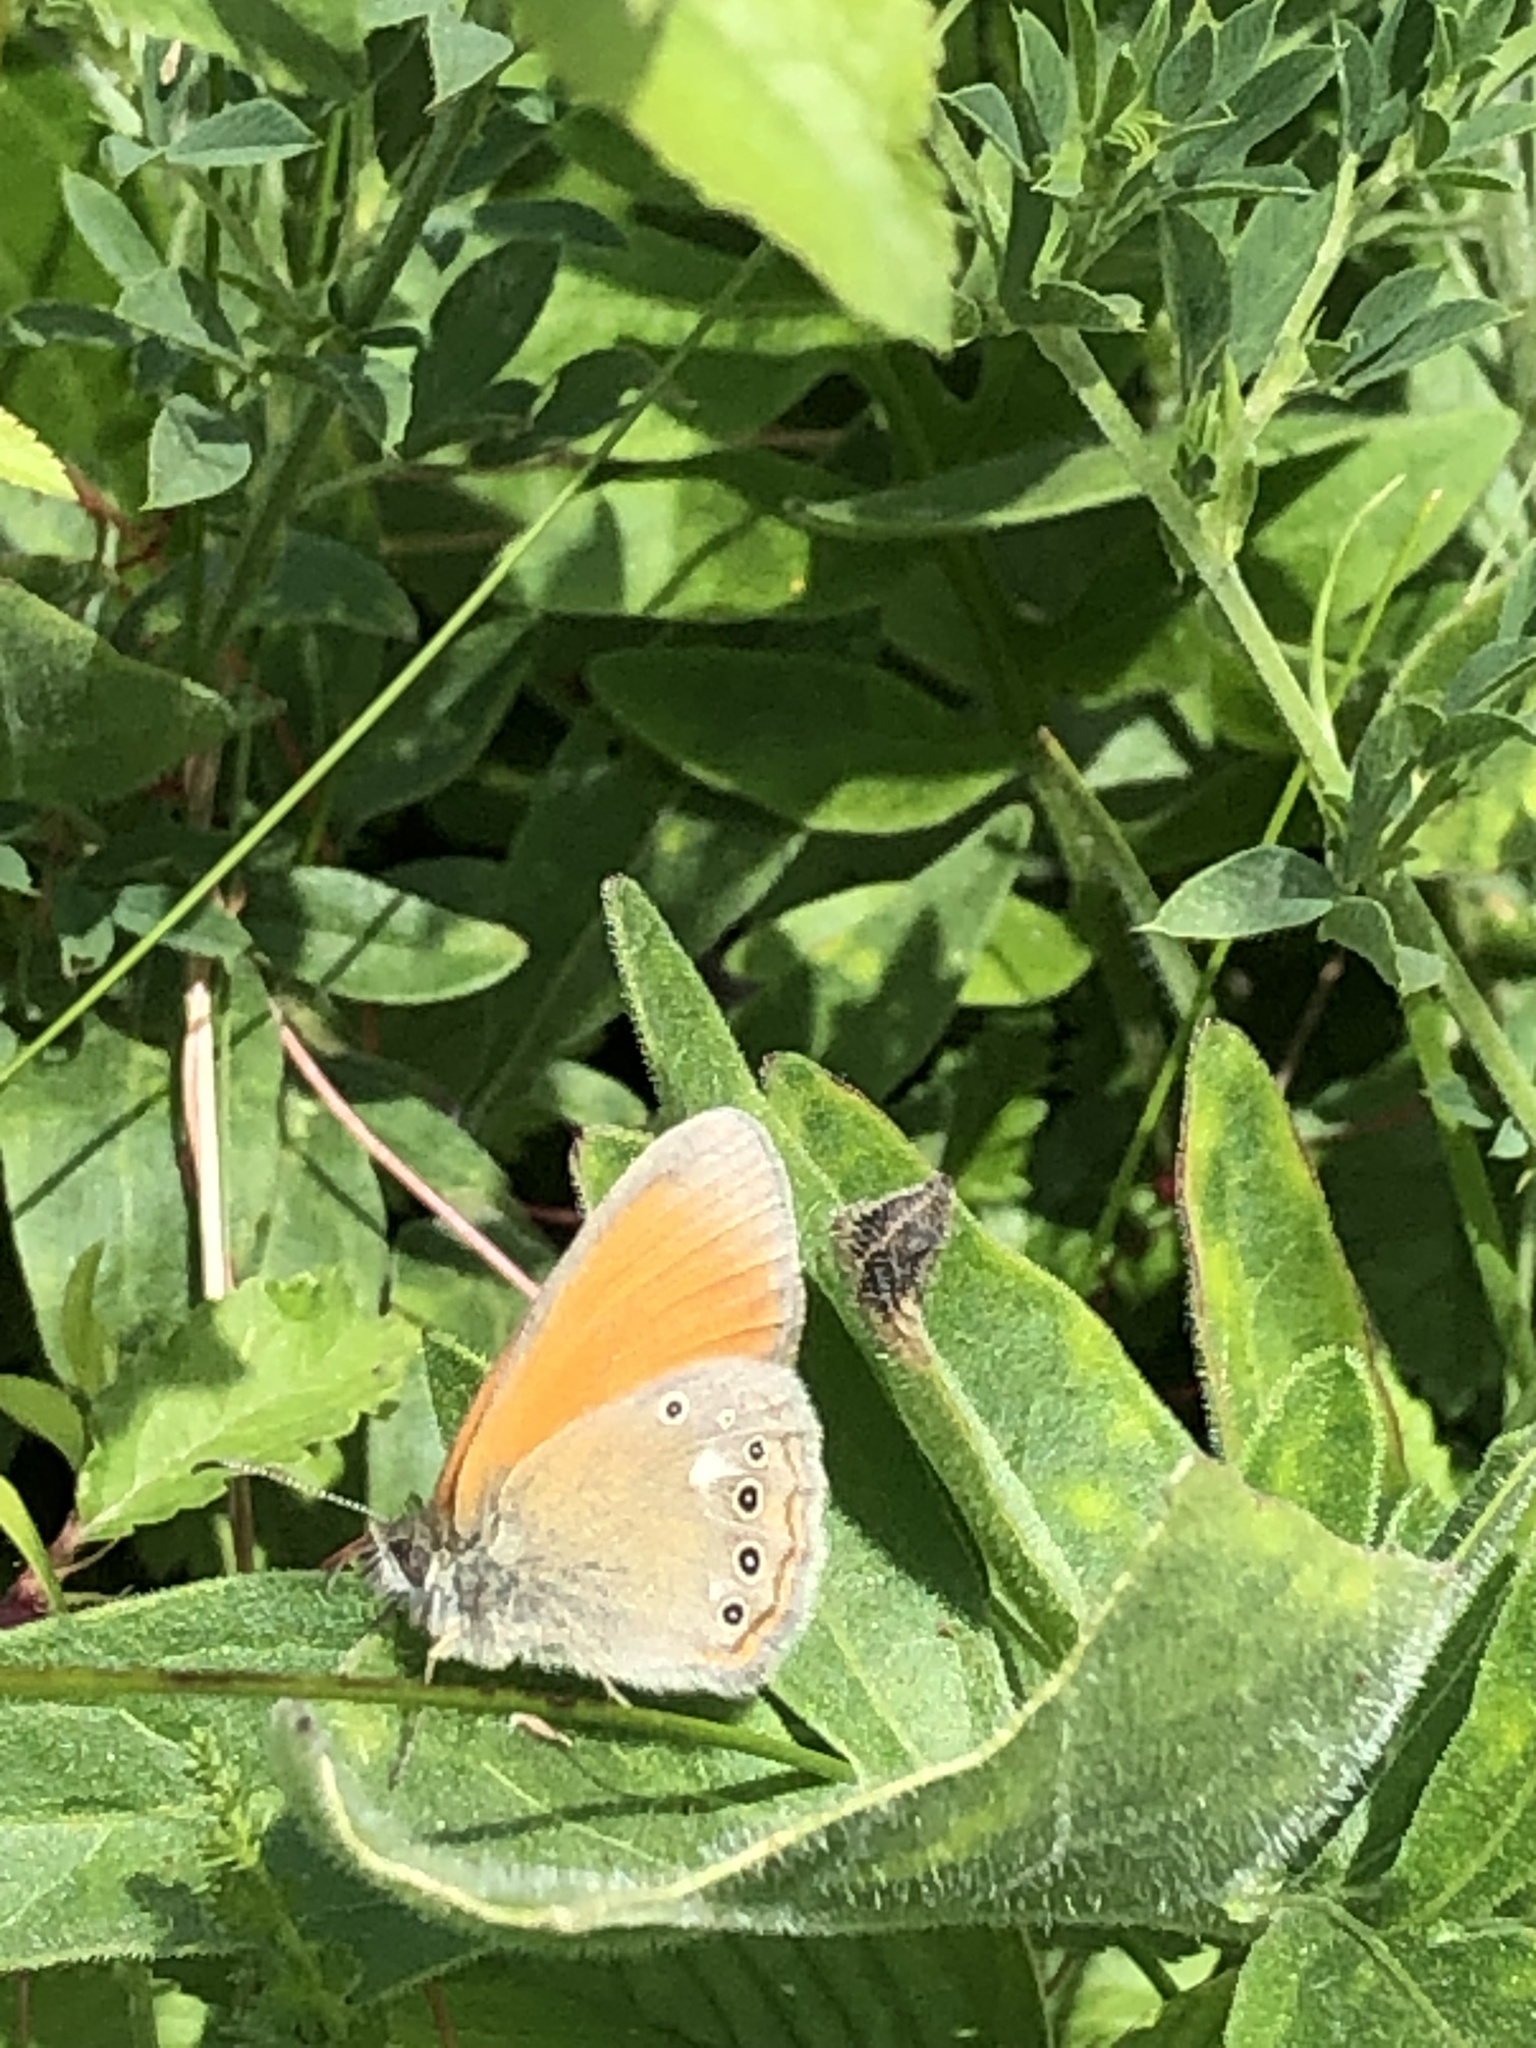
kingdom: Animalia
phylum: Arthropoda
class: Insecta
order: Lepidoptera
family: Nymphalidae
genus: Coenonympha
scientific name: Coenonympha iphis
